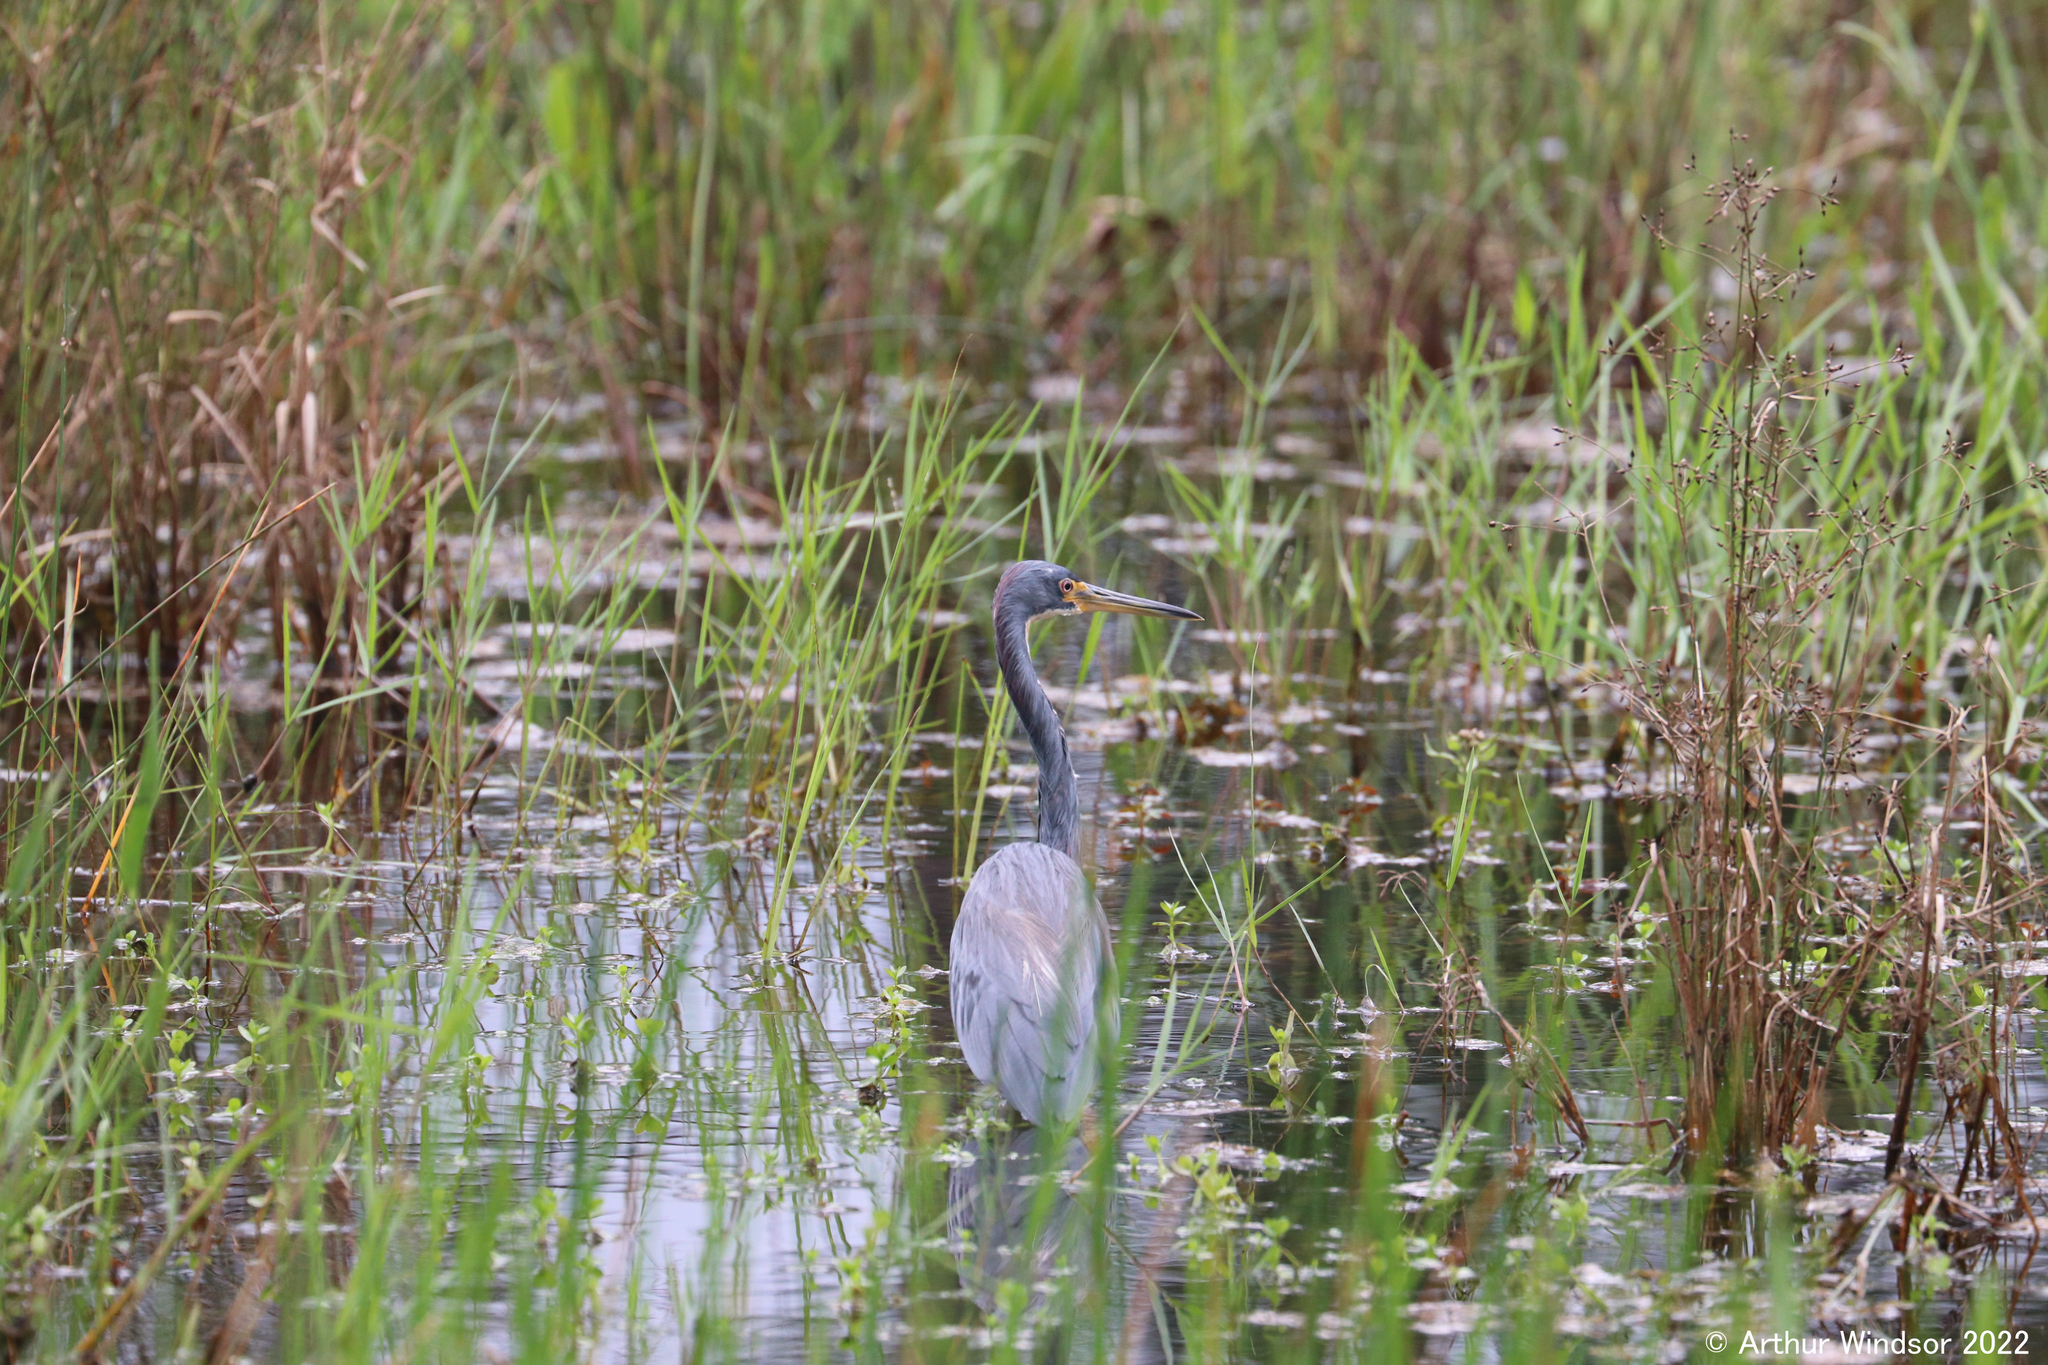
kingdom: Animalia
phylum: Chordata
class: Aves
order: Pelecaniformes
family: Ardeidae
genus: Egretta
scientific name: Egretta tricolor
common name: Tricolored heron
